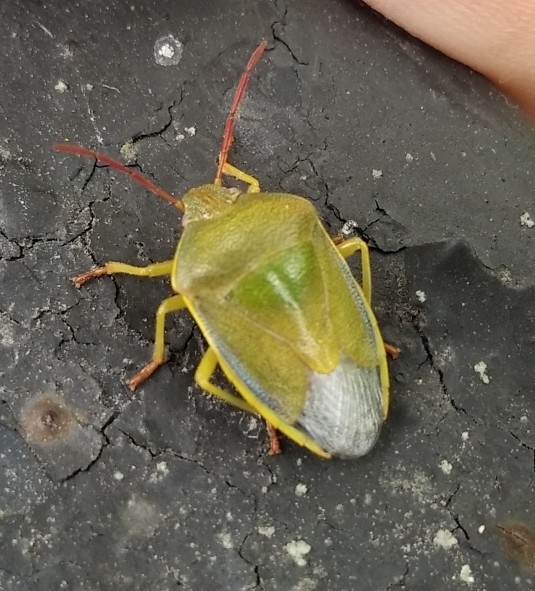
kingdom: Animalia
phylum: Arthropoda
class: Insecta
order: Hemiptera
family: Pentatomidae
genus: Piezodorus
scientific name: Piezodorus lituratus
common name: Stink bug
